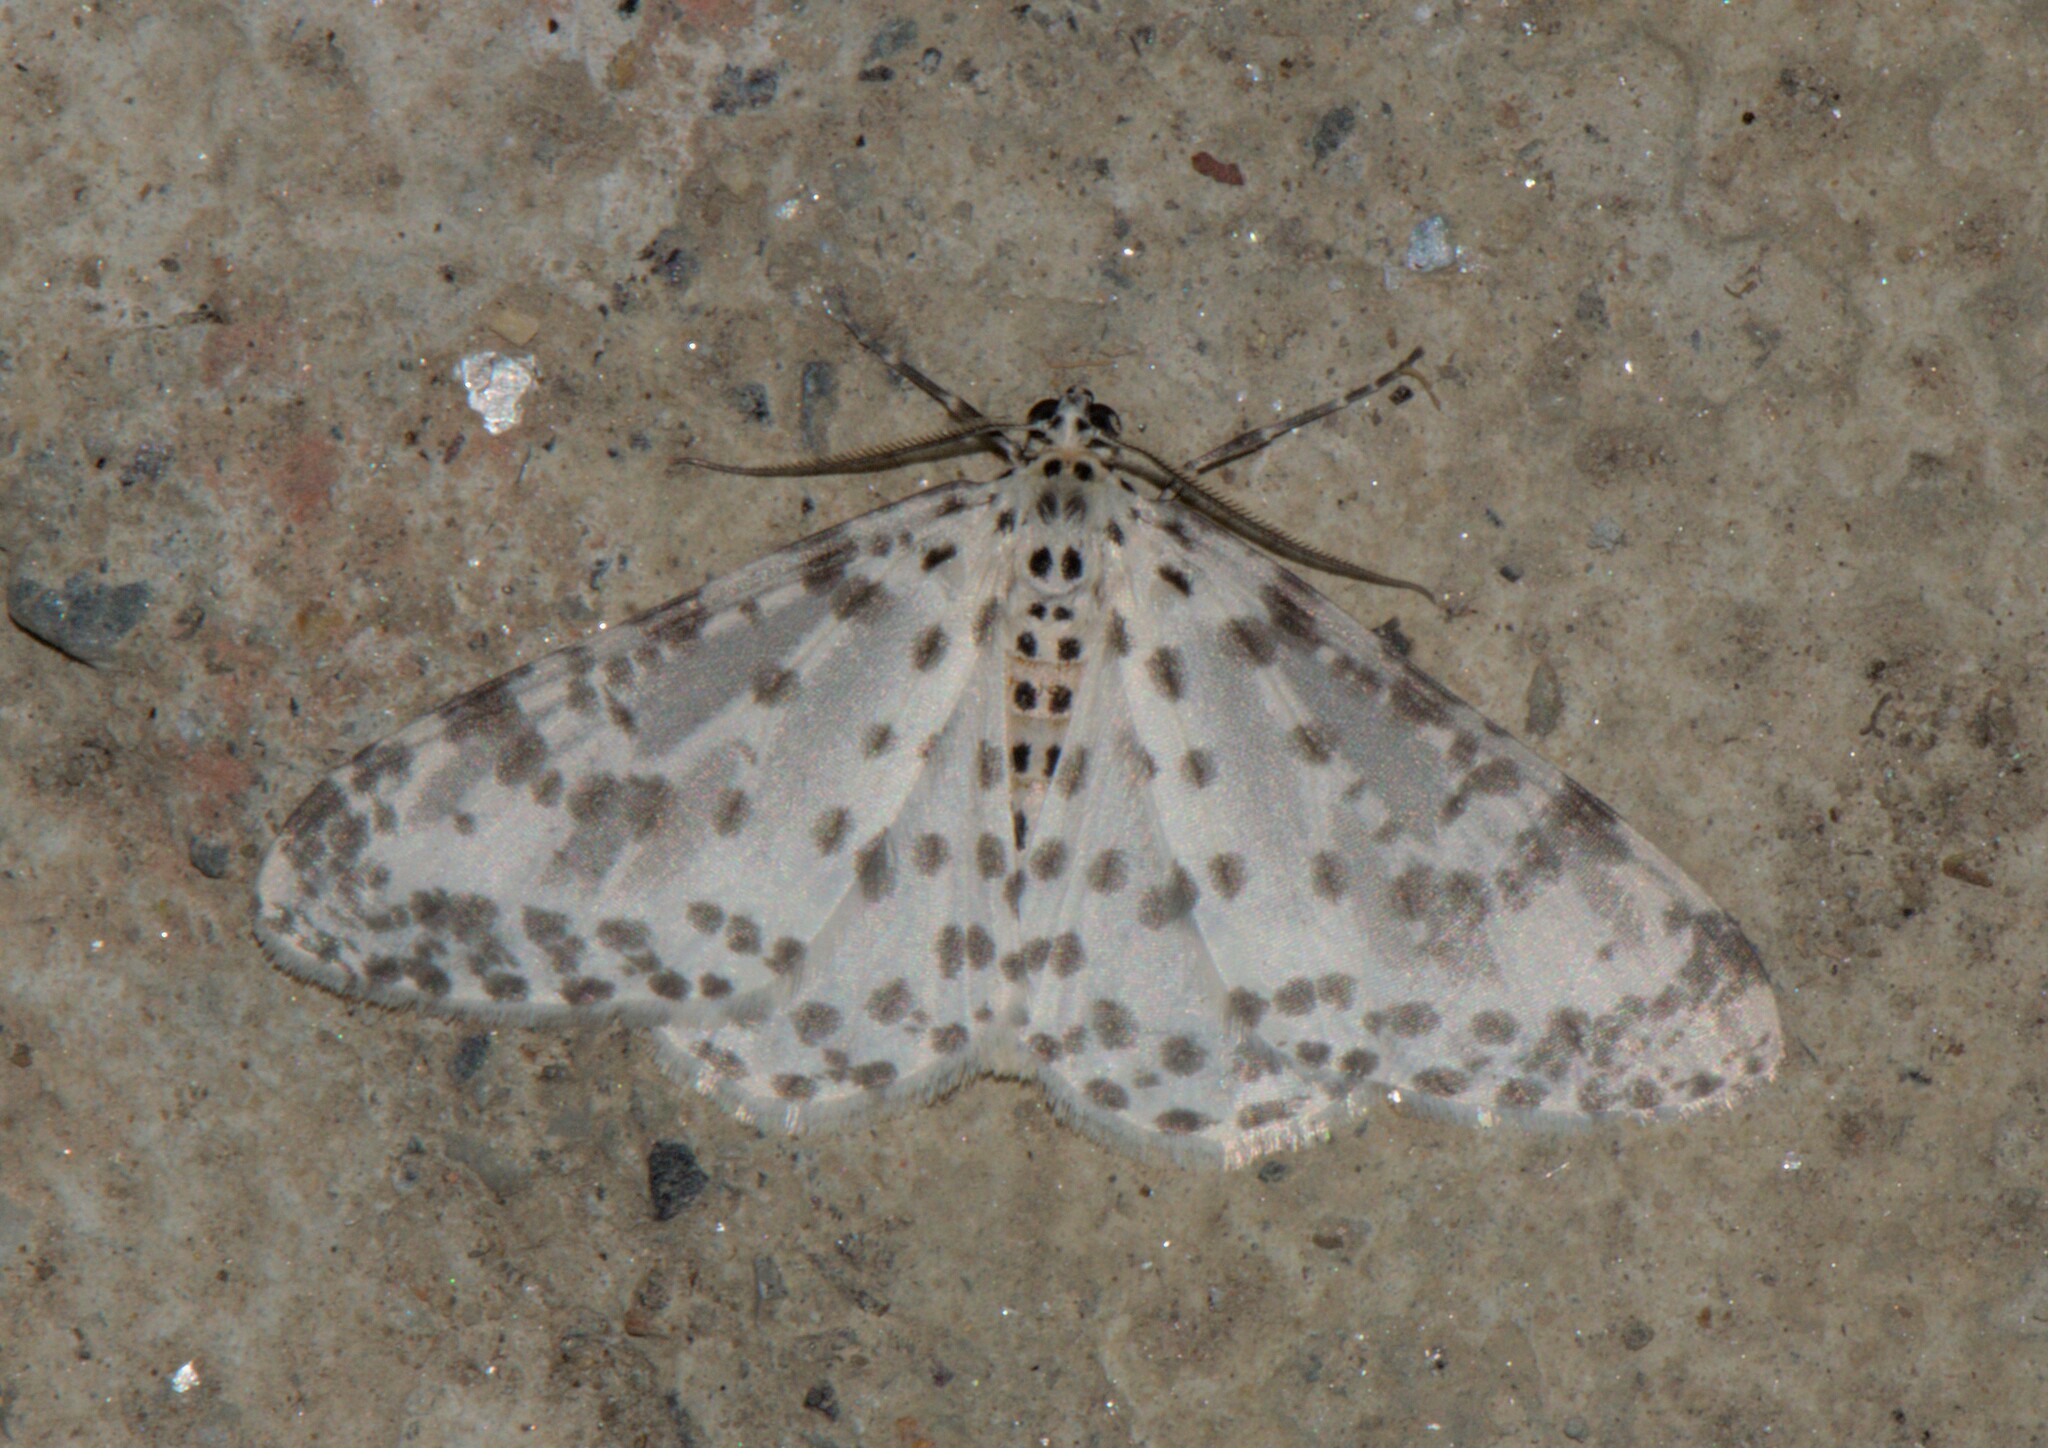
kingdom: Animalia
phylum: Arthropoda
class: Insecta
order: Lepidoptera
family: Geometridae
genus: Xenoplia
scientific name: Xenoplia maculata
